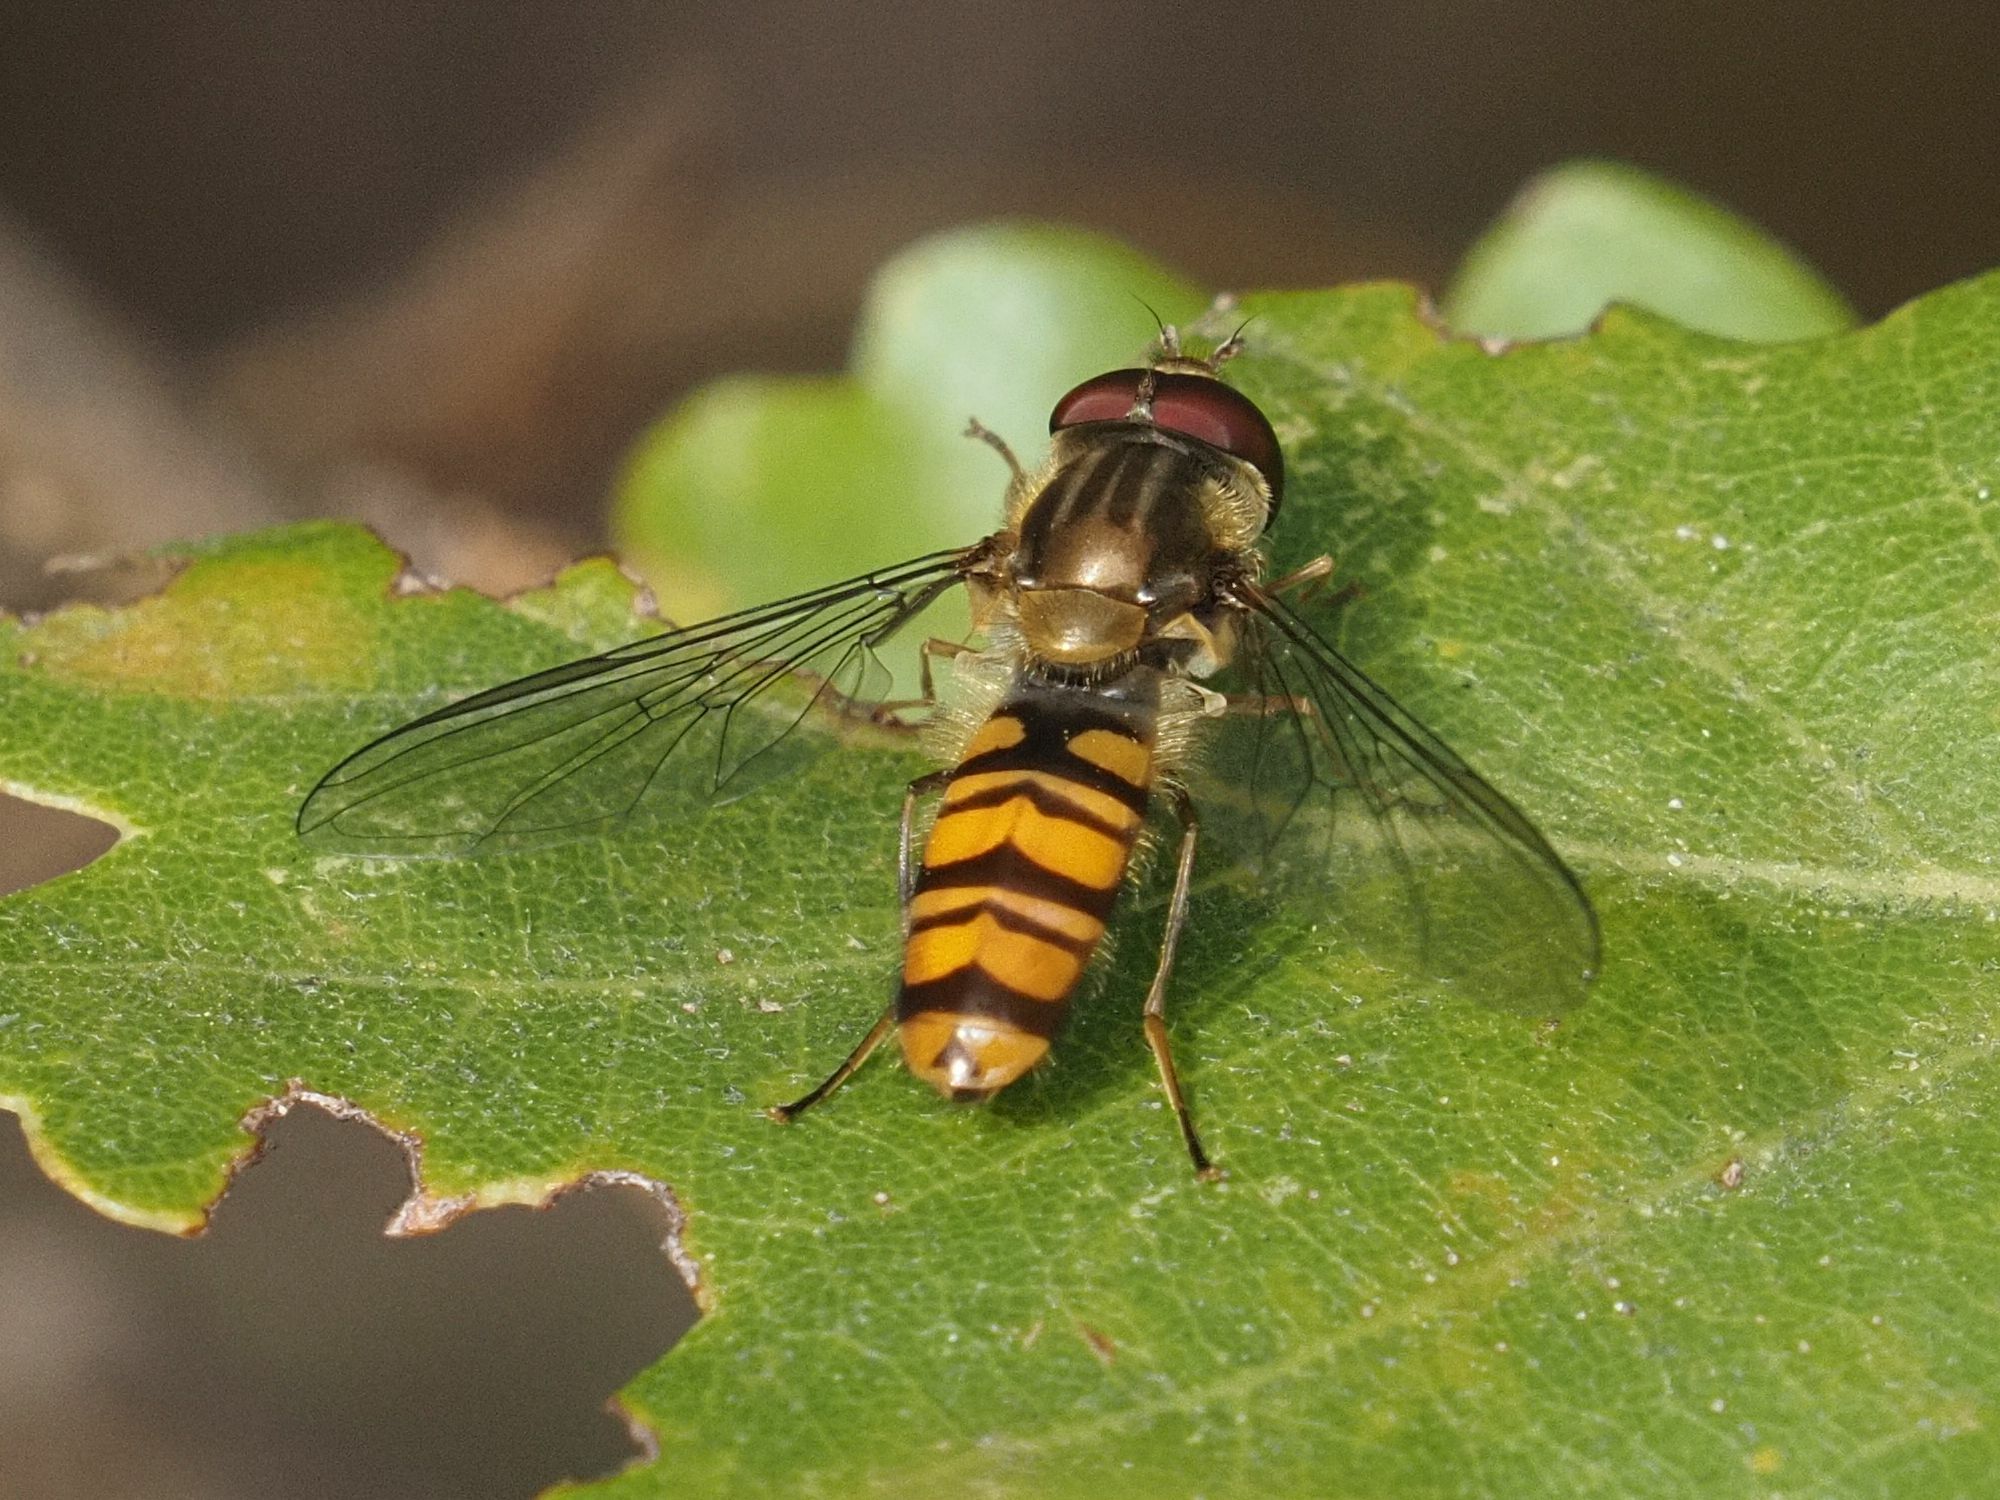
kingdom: Animalia
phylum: Arthropoda
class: Insecta
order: Diptera
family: Syrphidae
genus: Episyrphus
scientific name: Episyrphus balteatus
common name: Marmalade hoverfly
